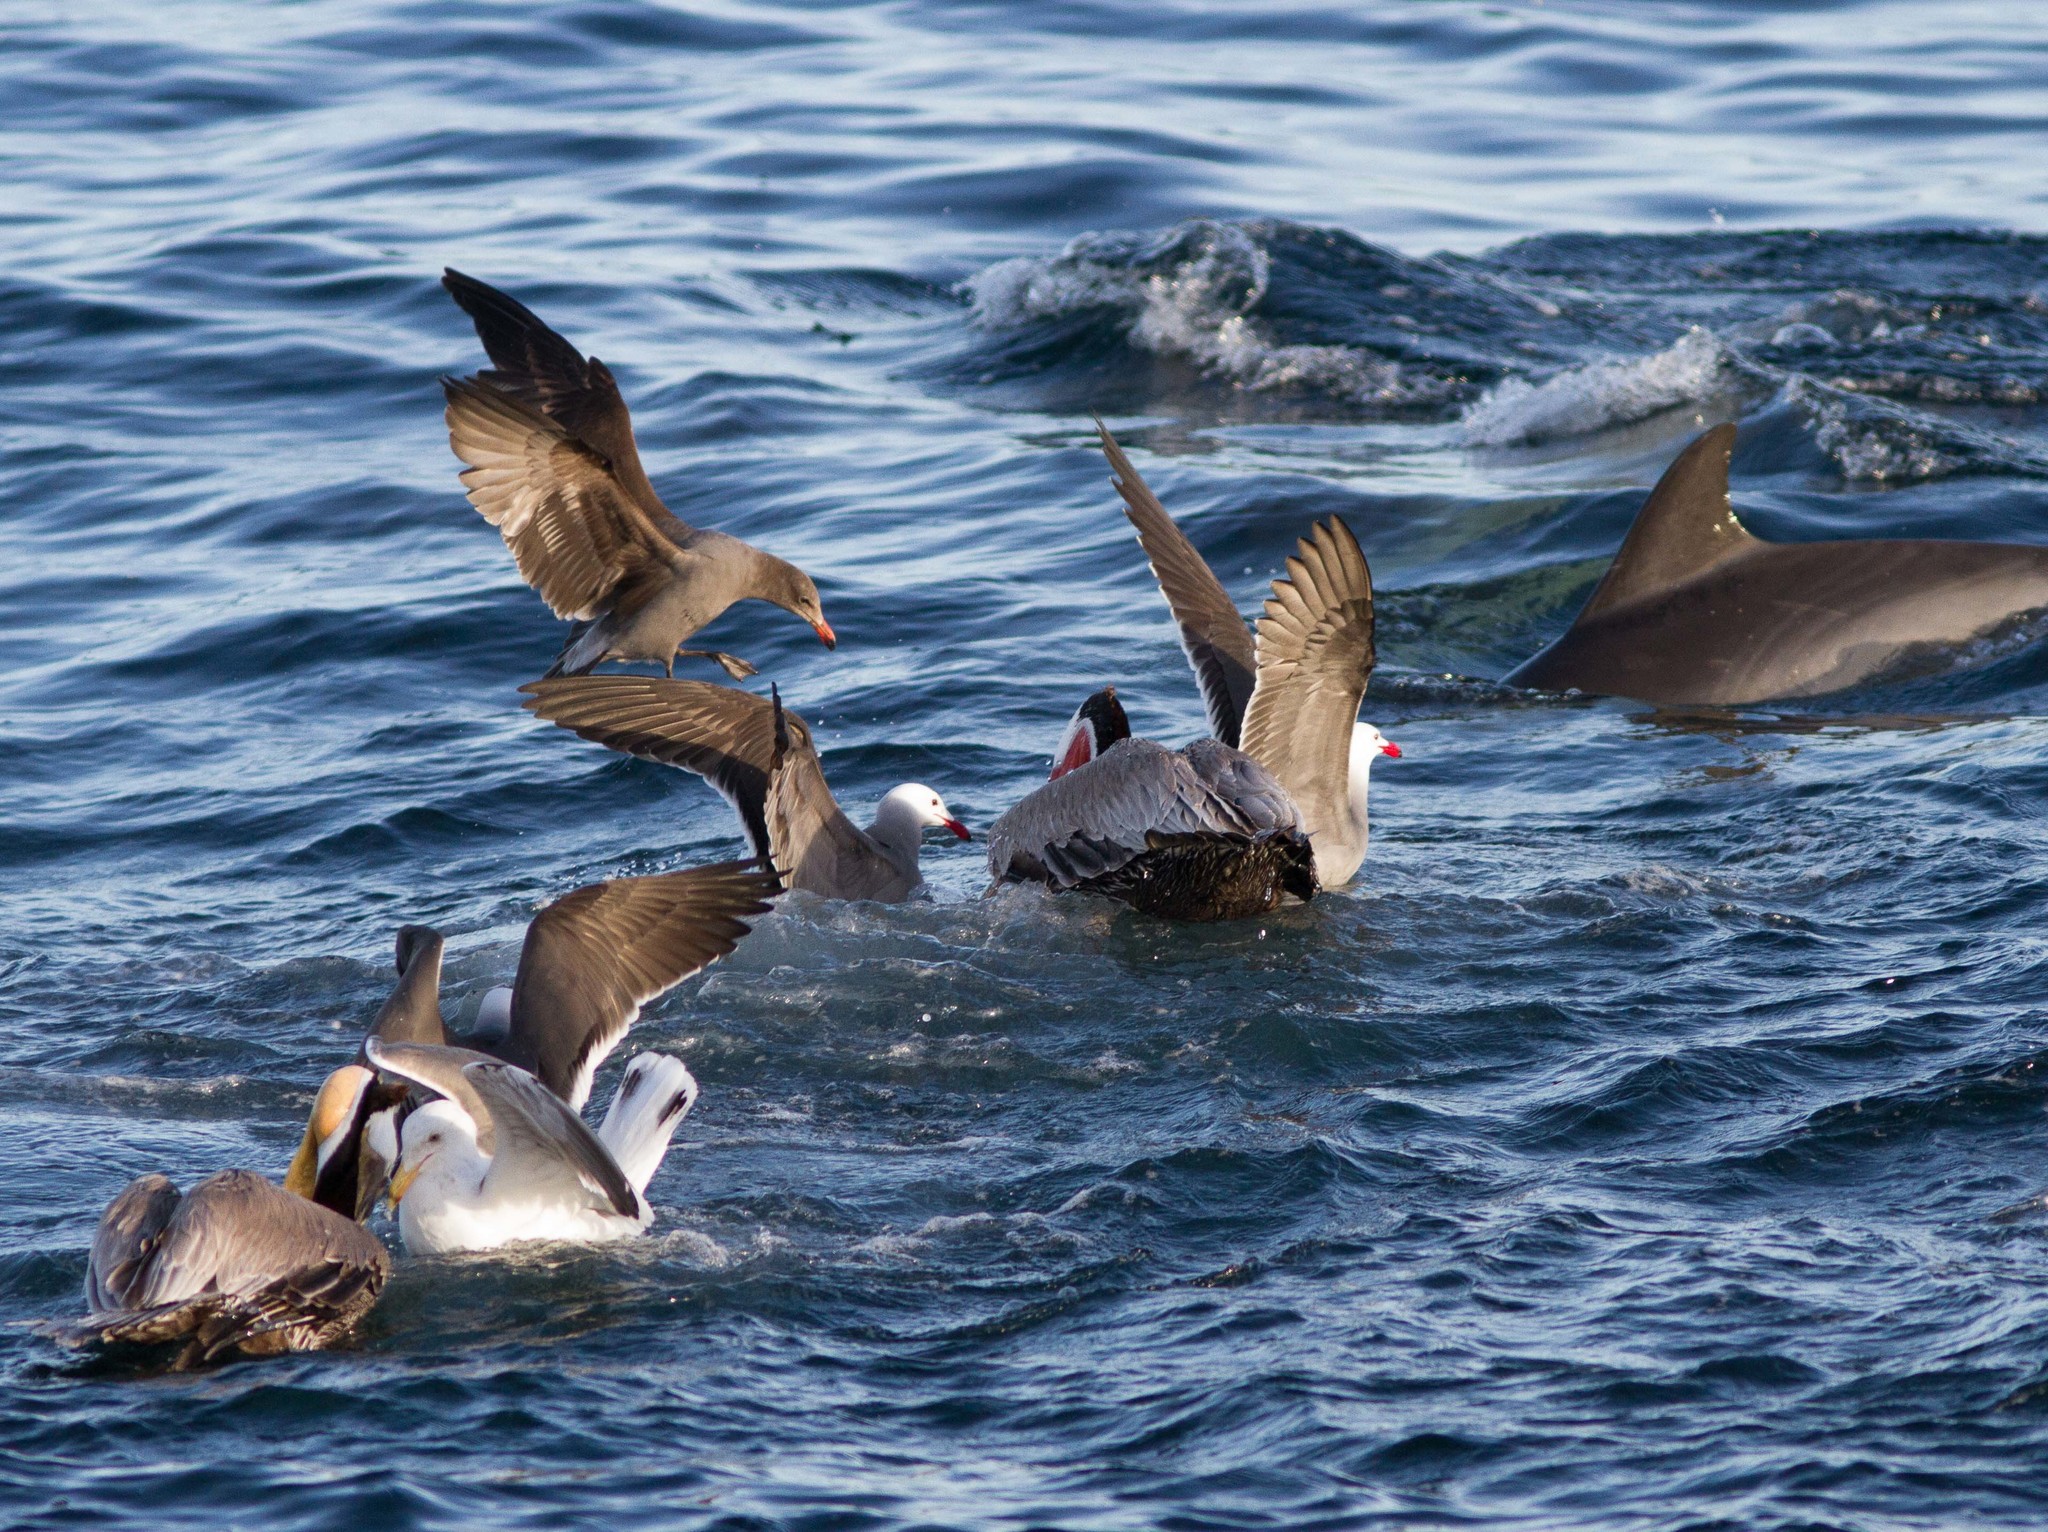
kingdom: Animalia
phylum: Chordata
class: Aves
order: Pelecaniformes
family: Pelecanidae
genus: Pelecanus
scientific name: Pelecanus occidentalis
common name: Brown pelican
